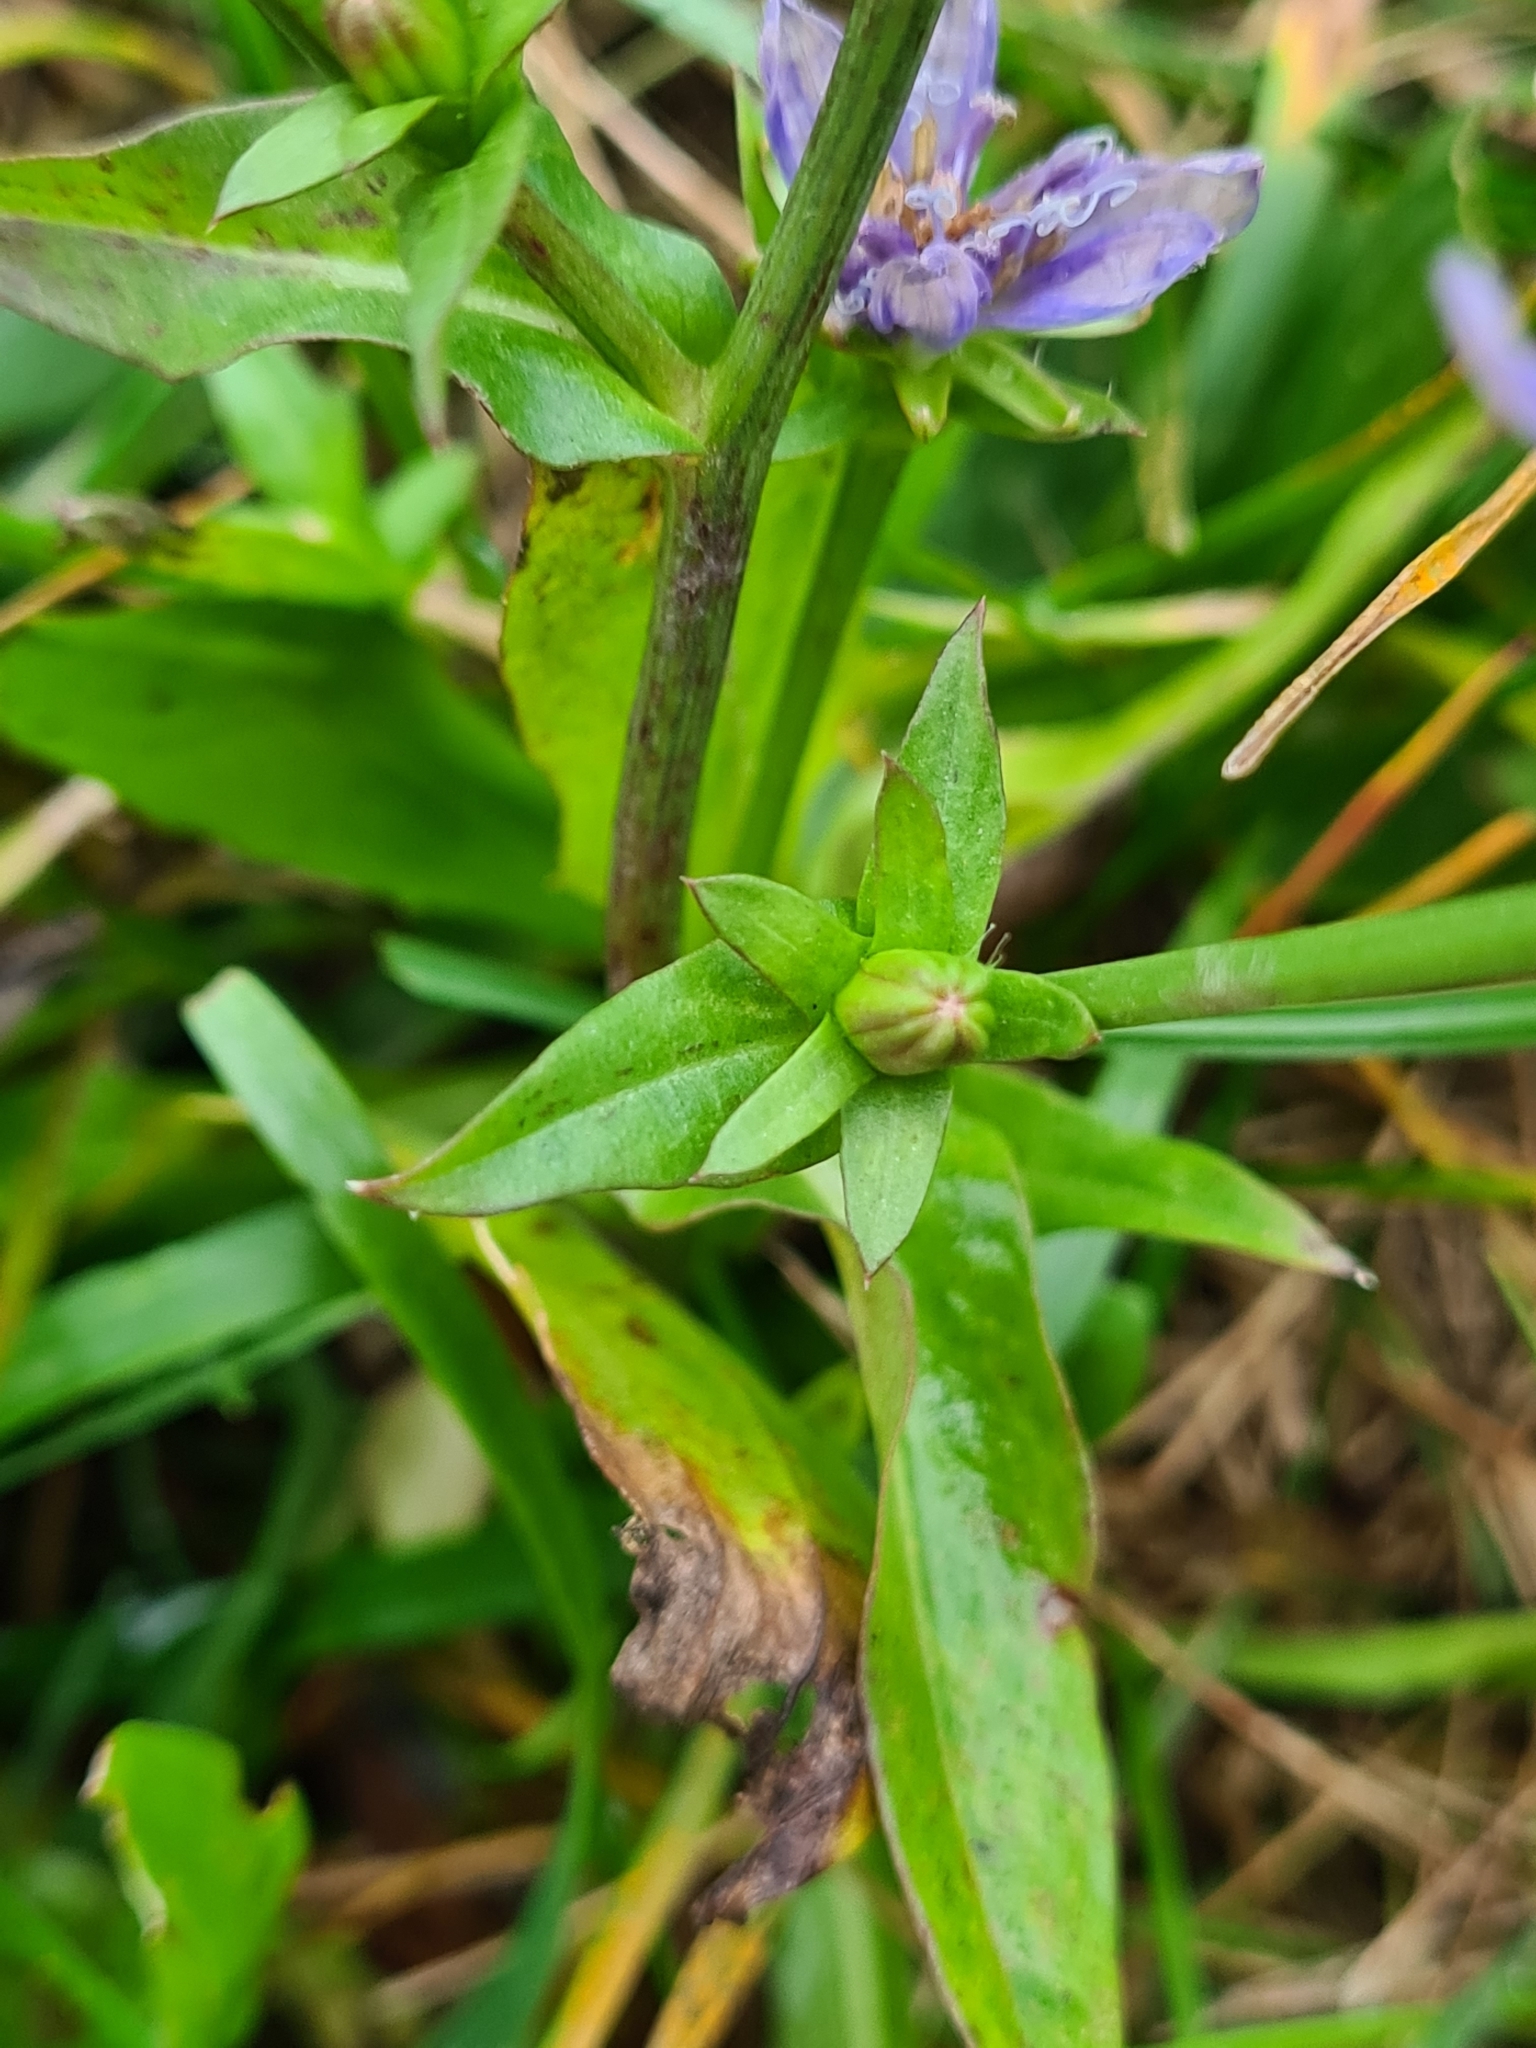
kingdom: Plantae
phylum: Tracheophyta
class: Magnoliopsida
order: Asterales
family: Asteraceae
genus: Cichorium
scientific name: Cichorium intybus
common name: Chicory
